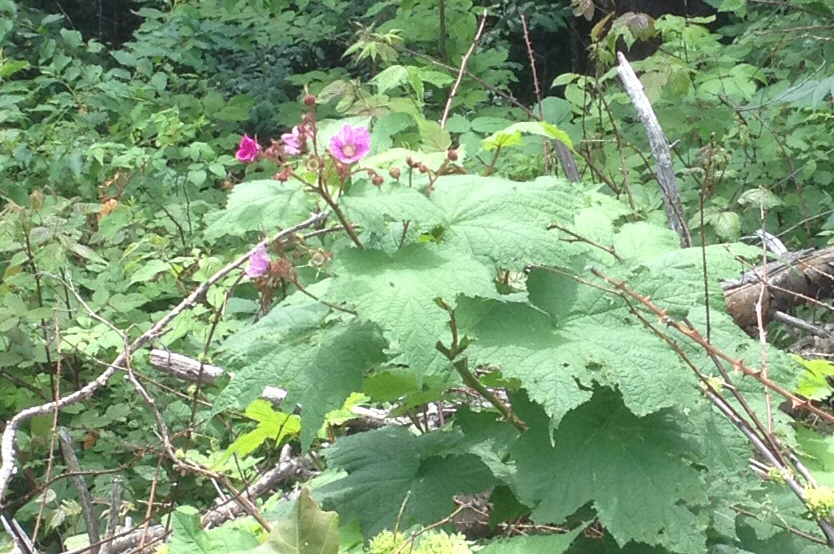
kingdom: Plantae
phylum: Tracheophyta
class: Magnoliopsida
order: Rosales
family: Rosaceae
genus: Rubus
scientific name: Rubus odoratus
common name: Purple-flowered raspberry
